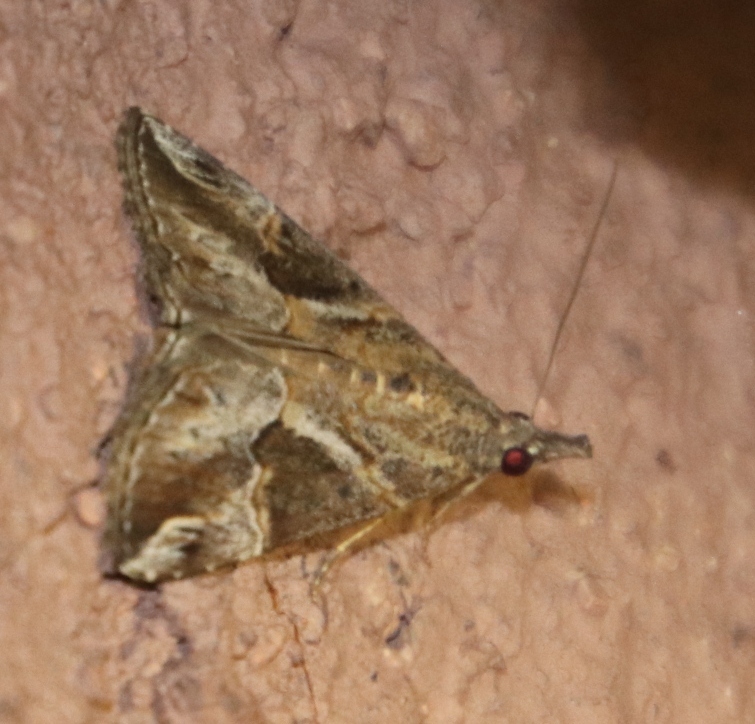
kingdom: Animalia
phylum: Arthropoda
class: Insecta
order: Lepidoptera
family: Erebidae
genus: Hypena
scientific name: Hypena jussalis
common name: Moth
